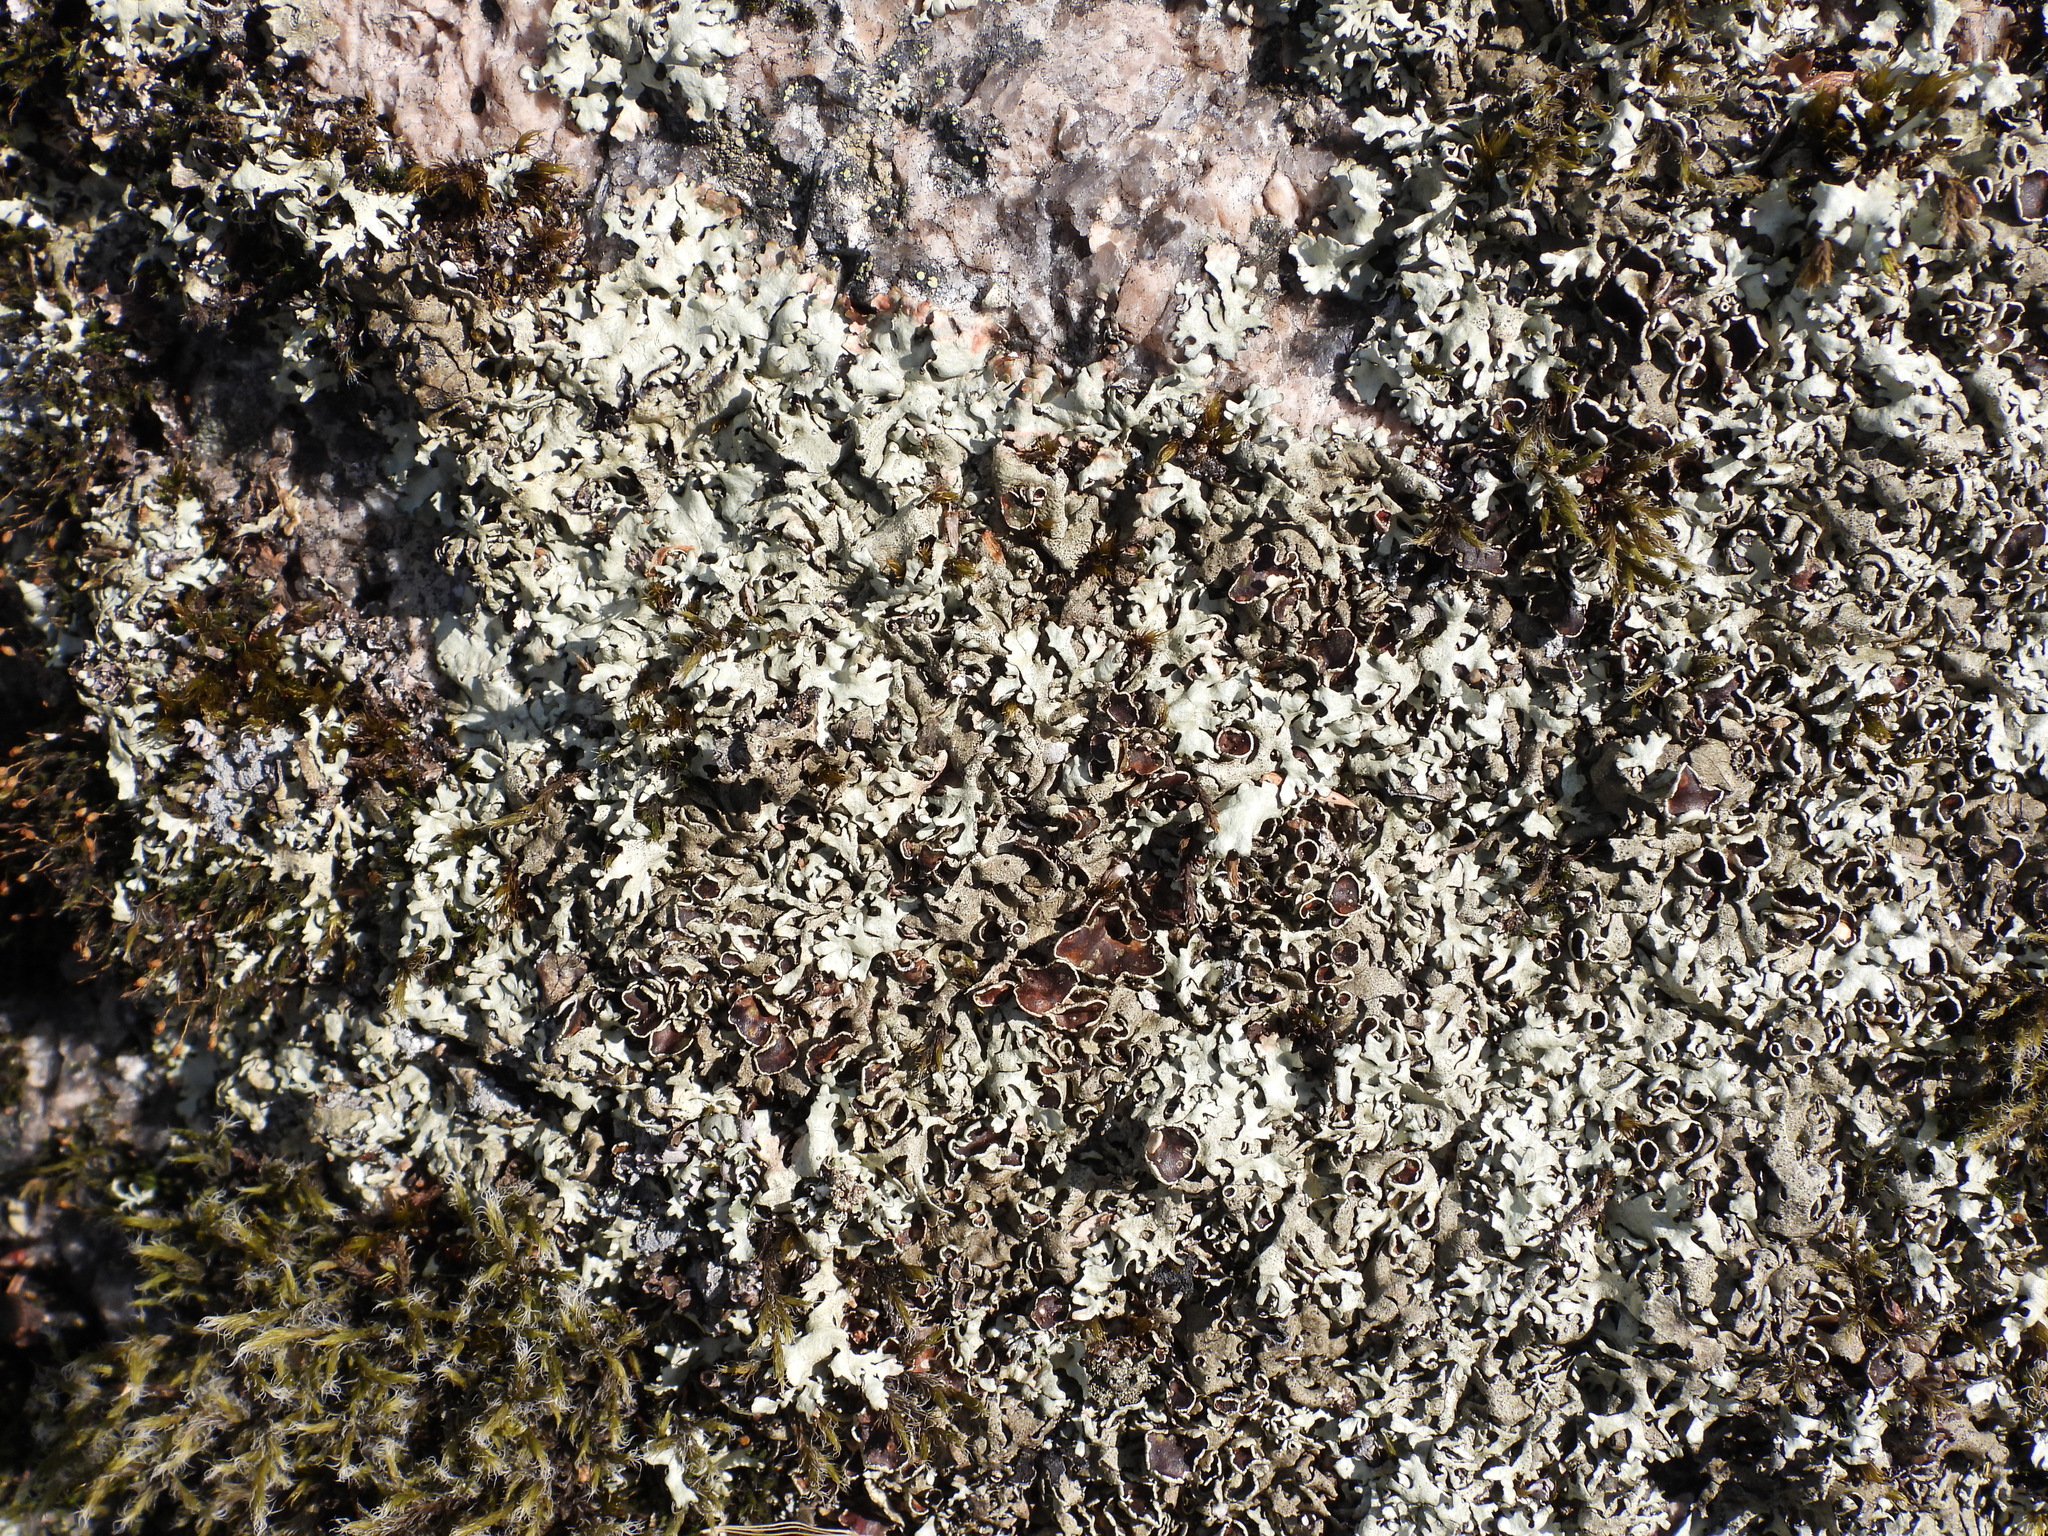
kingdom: Fungi
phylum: Ascomycota
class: Lecanoromycetes
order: Lecanorales
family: Parmeliaceae
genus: Xanthoparmelia
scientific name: Xanthoparmelia stenophylla
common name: Shingled rock shield
